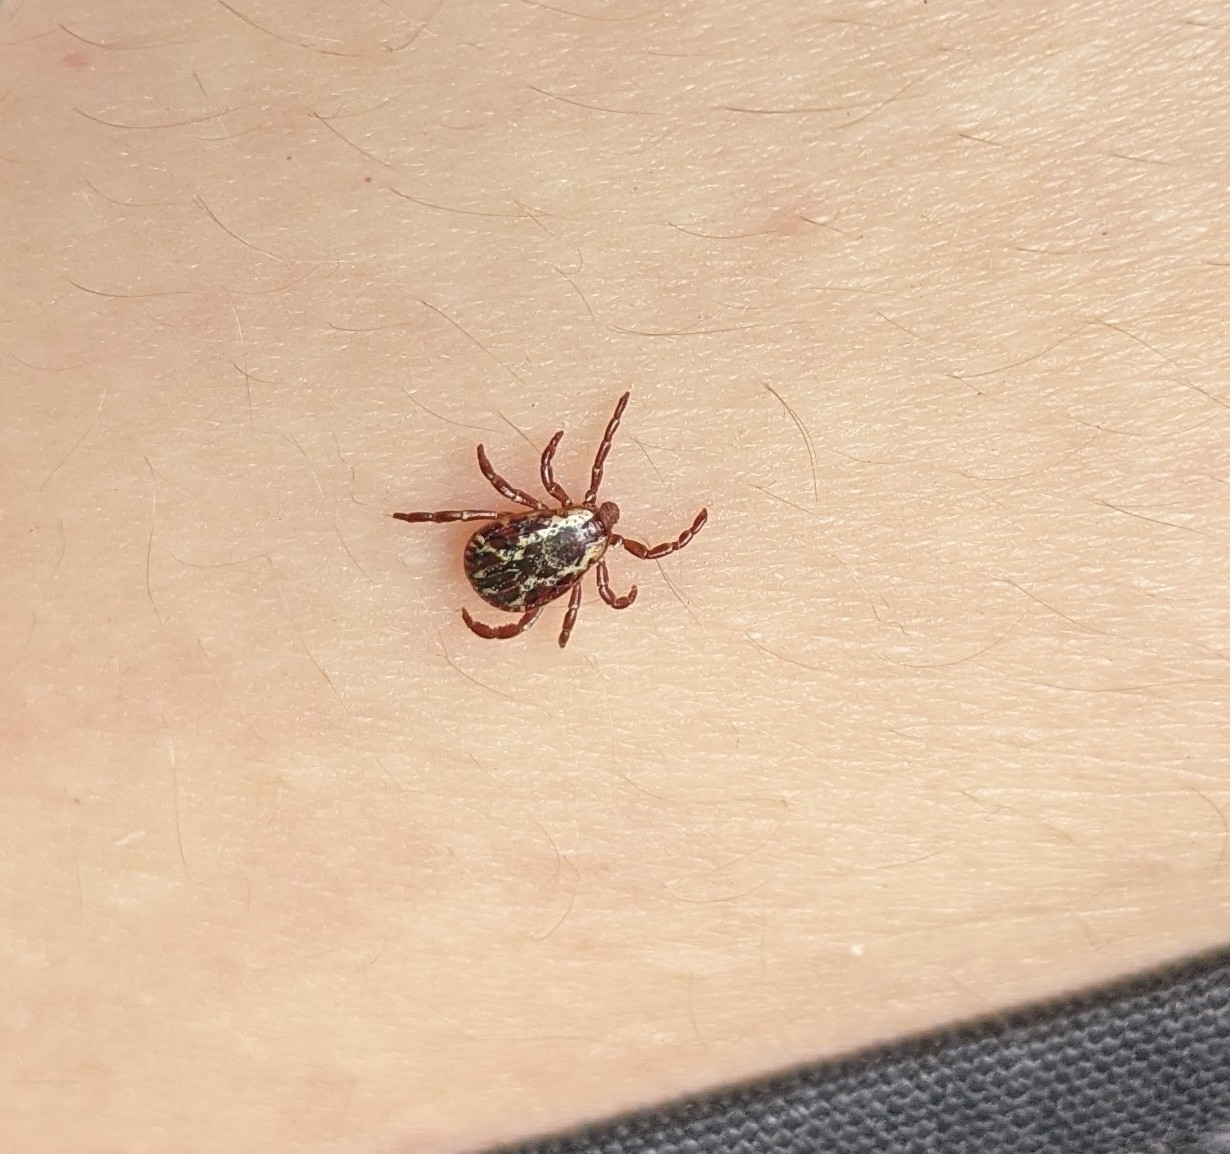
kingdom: Animalia
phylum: Arthropoda
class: Arachnida
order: Ixodida
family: Ixodidae
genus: Dermacentor
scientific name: Dermacentor variabilis
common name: American dog tick
